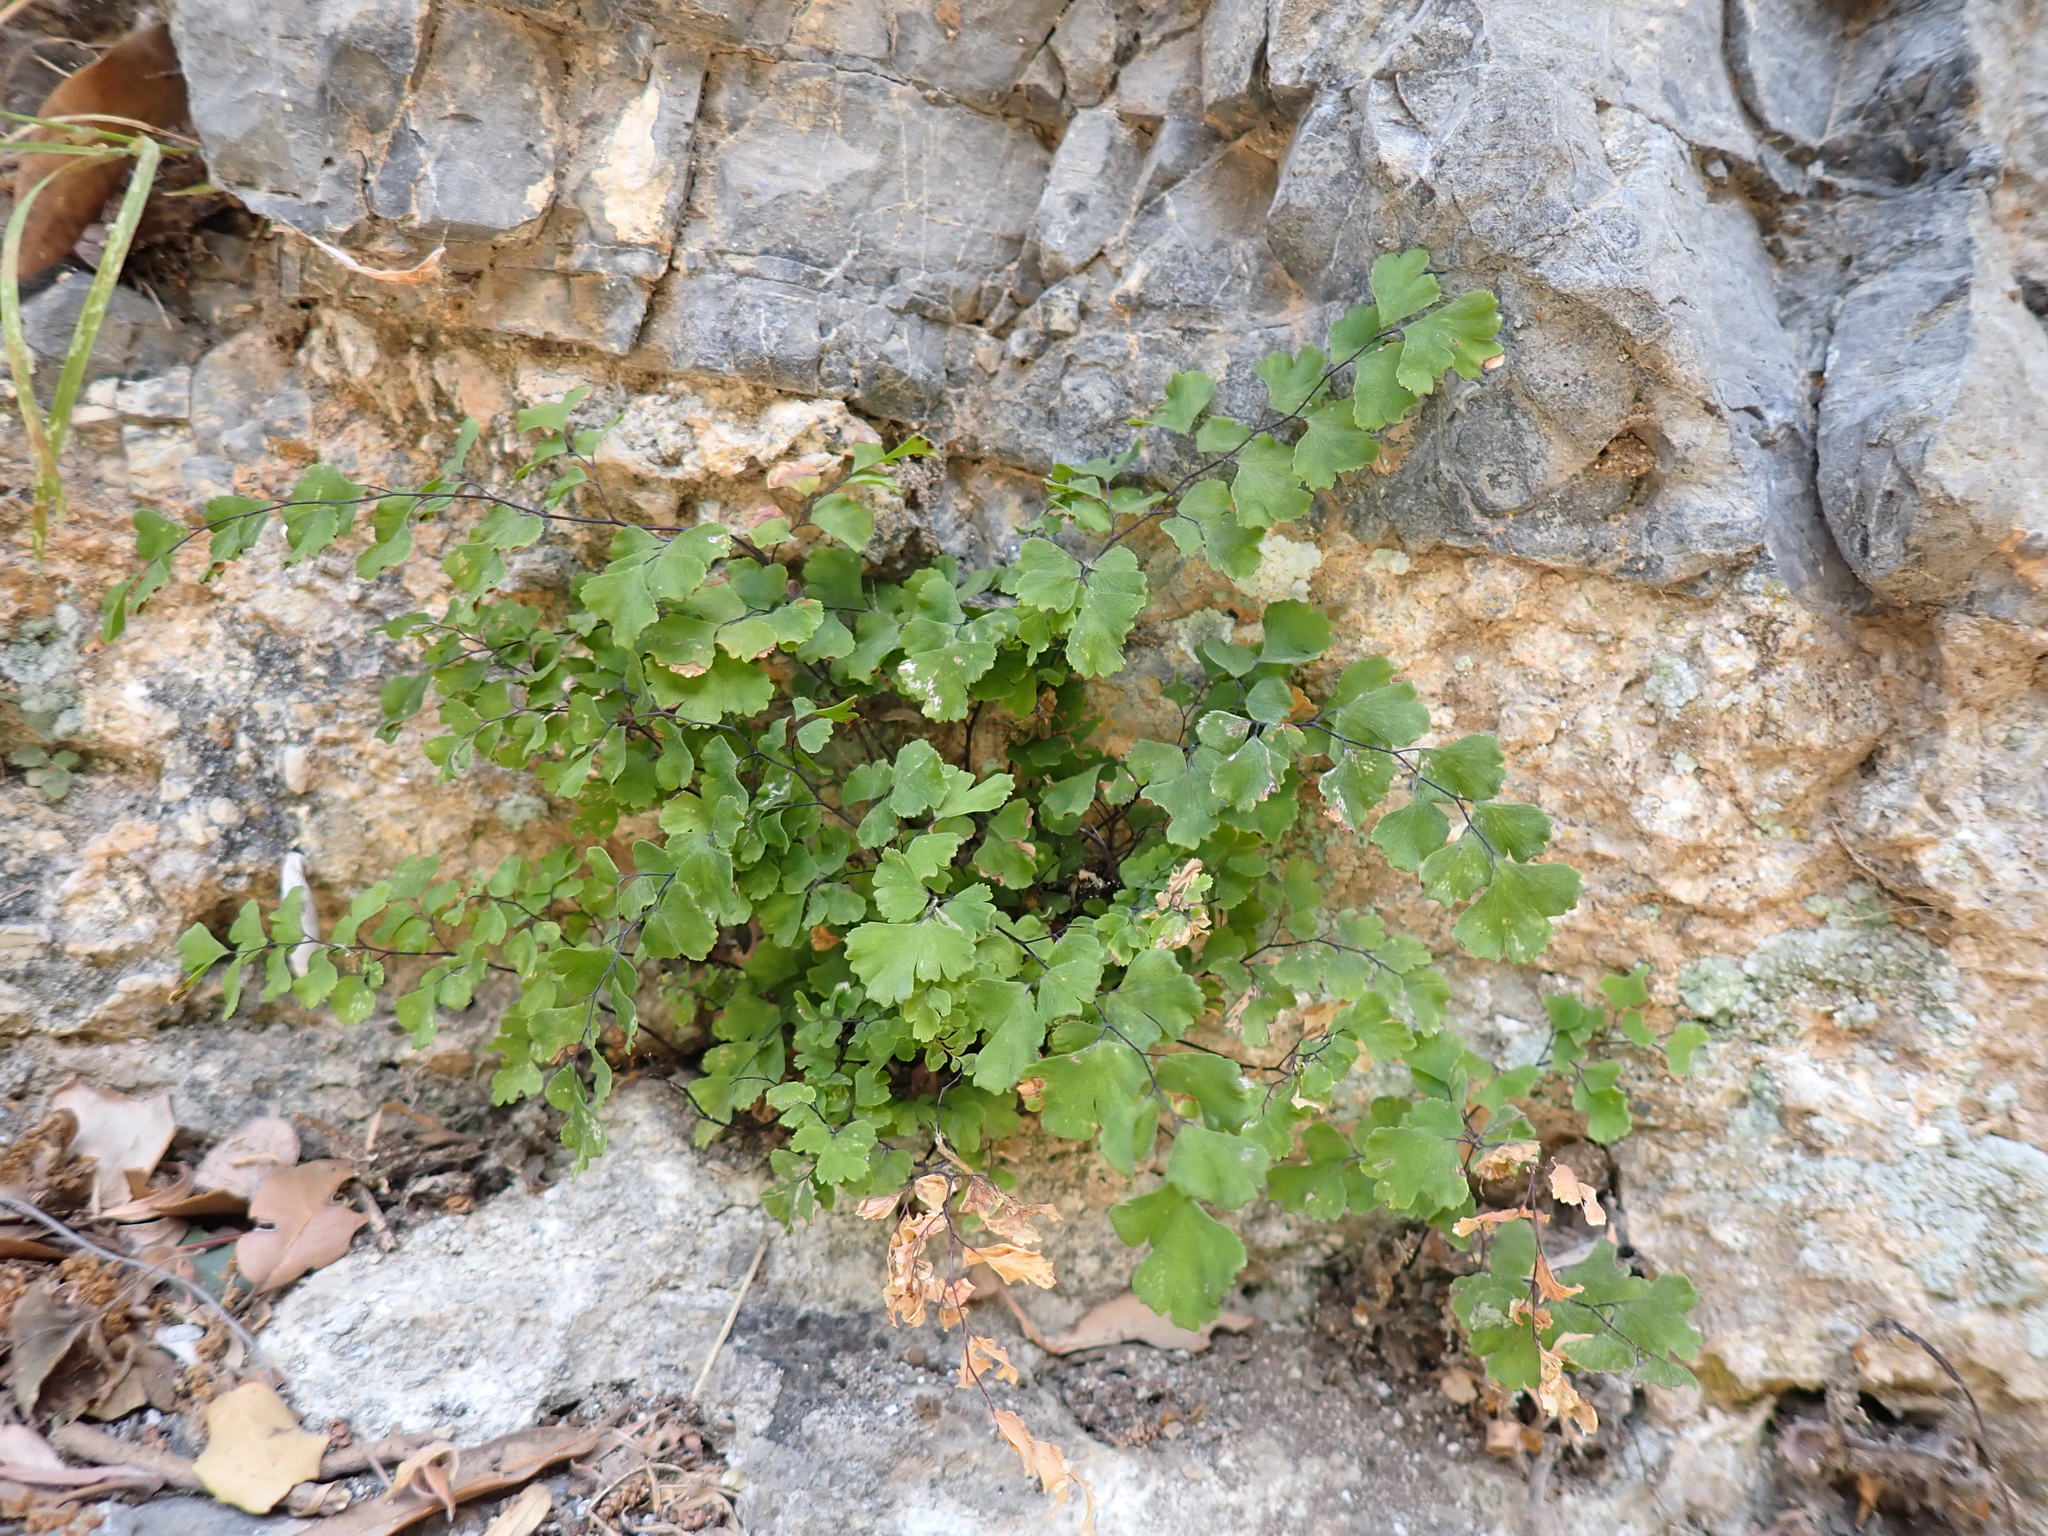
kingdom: Plantae
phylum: Tracheophyta
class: Polypodiopsida
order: Polypodiales
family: Pteridaceae
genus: Adiantum
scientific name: Adiantum capillus-veneris
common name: Maidenhair fern
